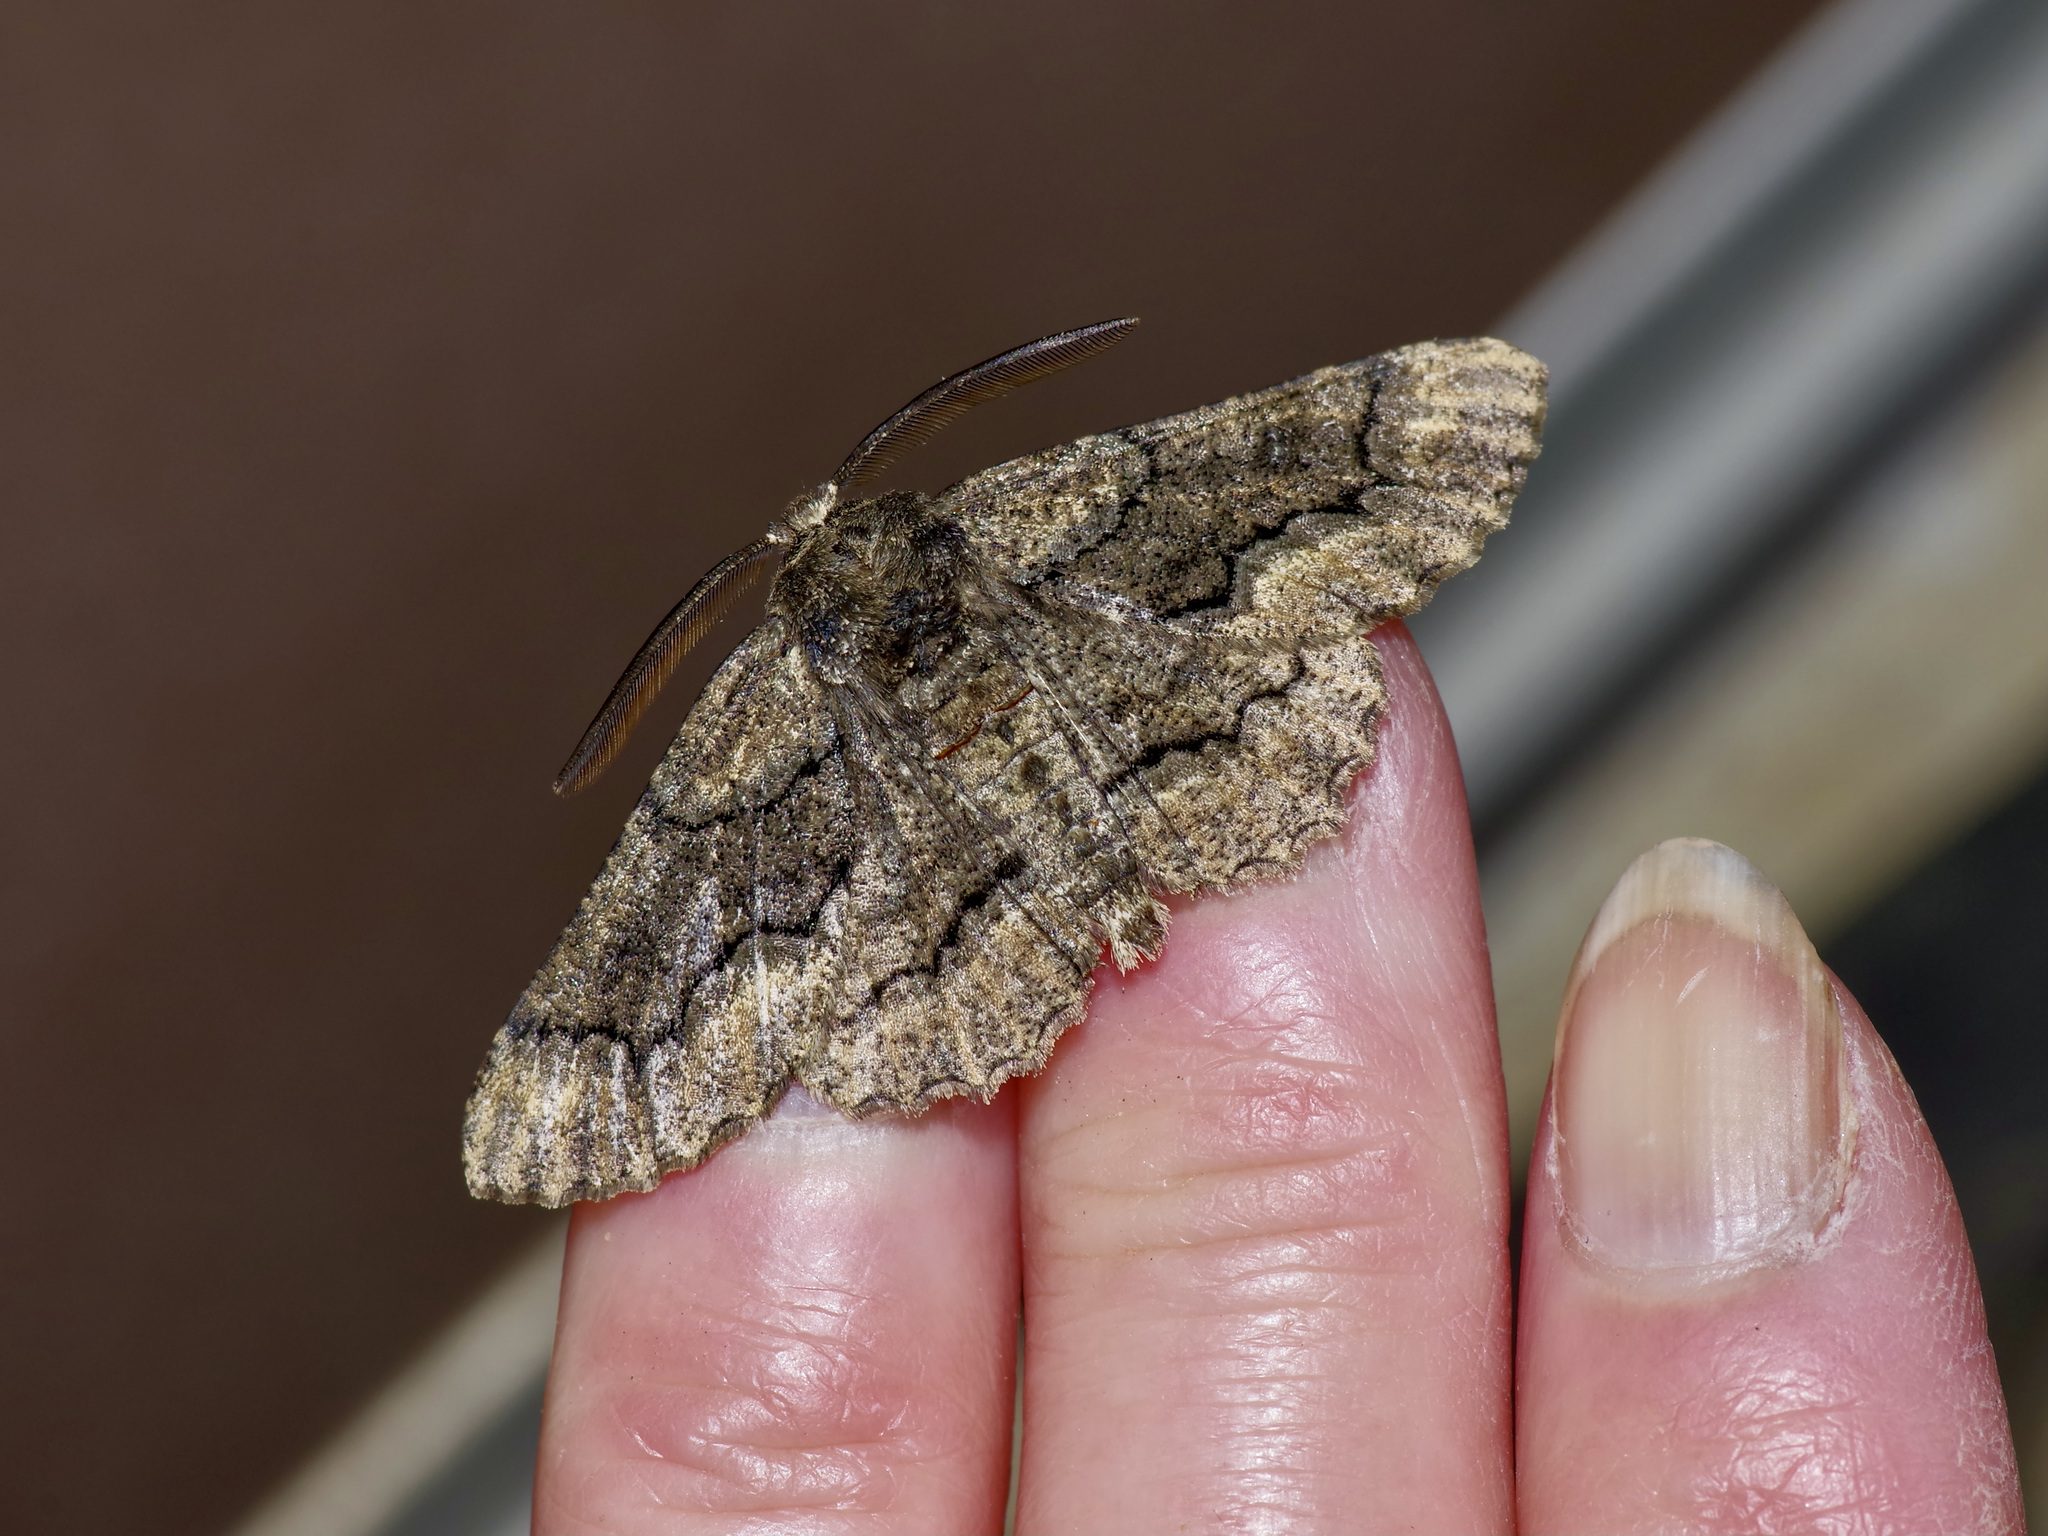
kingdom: Animalia
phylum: Arthropoda
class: Insecta
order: Lepidoptera
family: Geometridae
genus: Phaeoura
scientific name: Phaeoura quernaria
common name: Oak beauty
